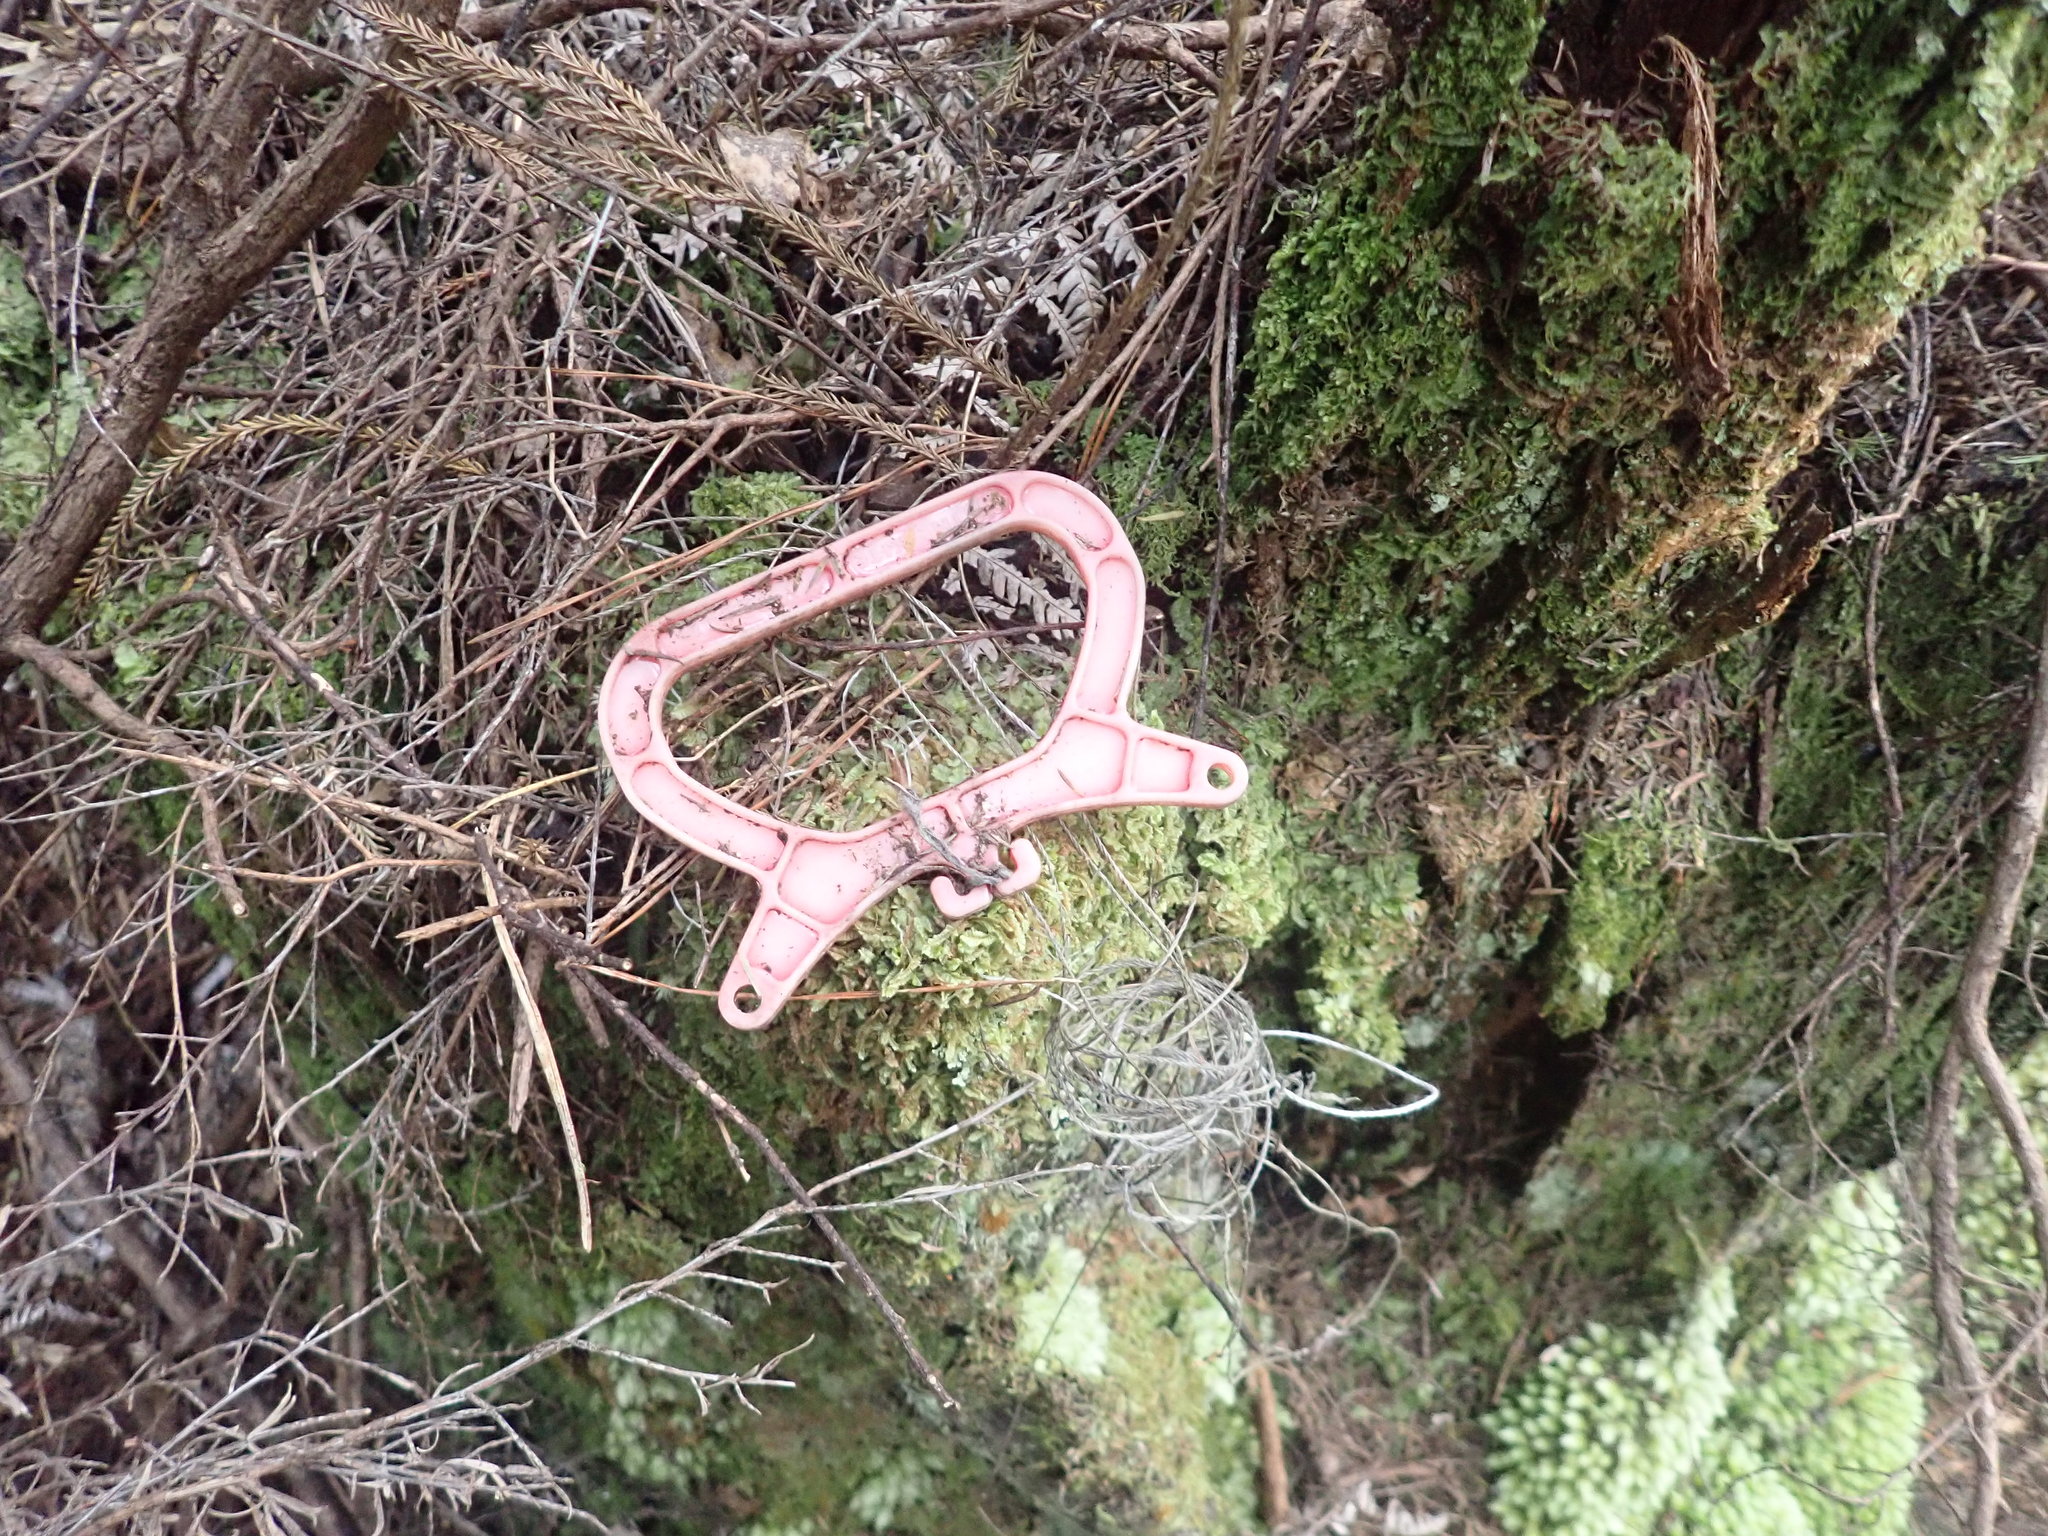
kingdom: Plantae
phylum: Tracheophyta
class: Polypodiopsida
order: Cyatheales
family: Cyatheaceae
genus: Alsophila
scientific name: Alsophila dealbata
